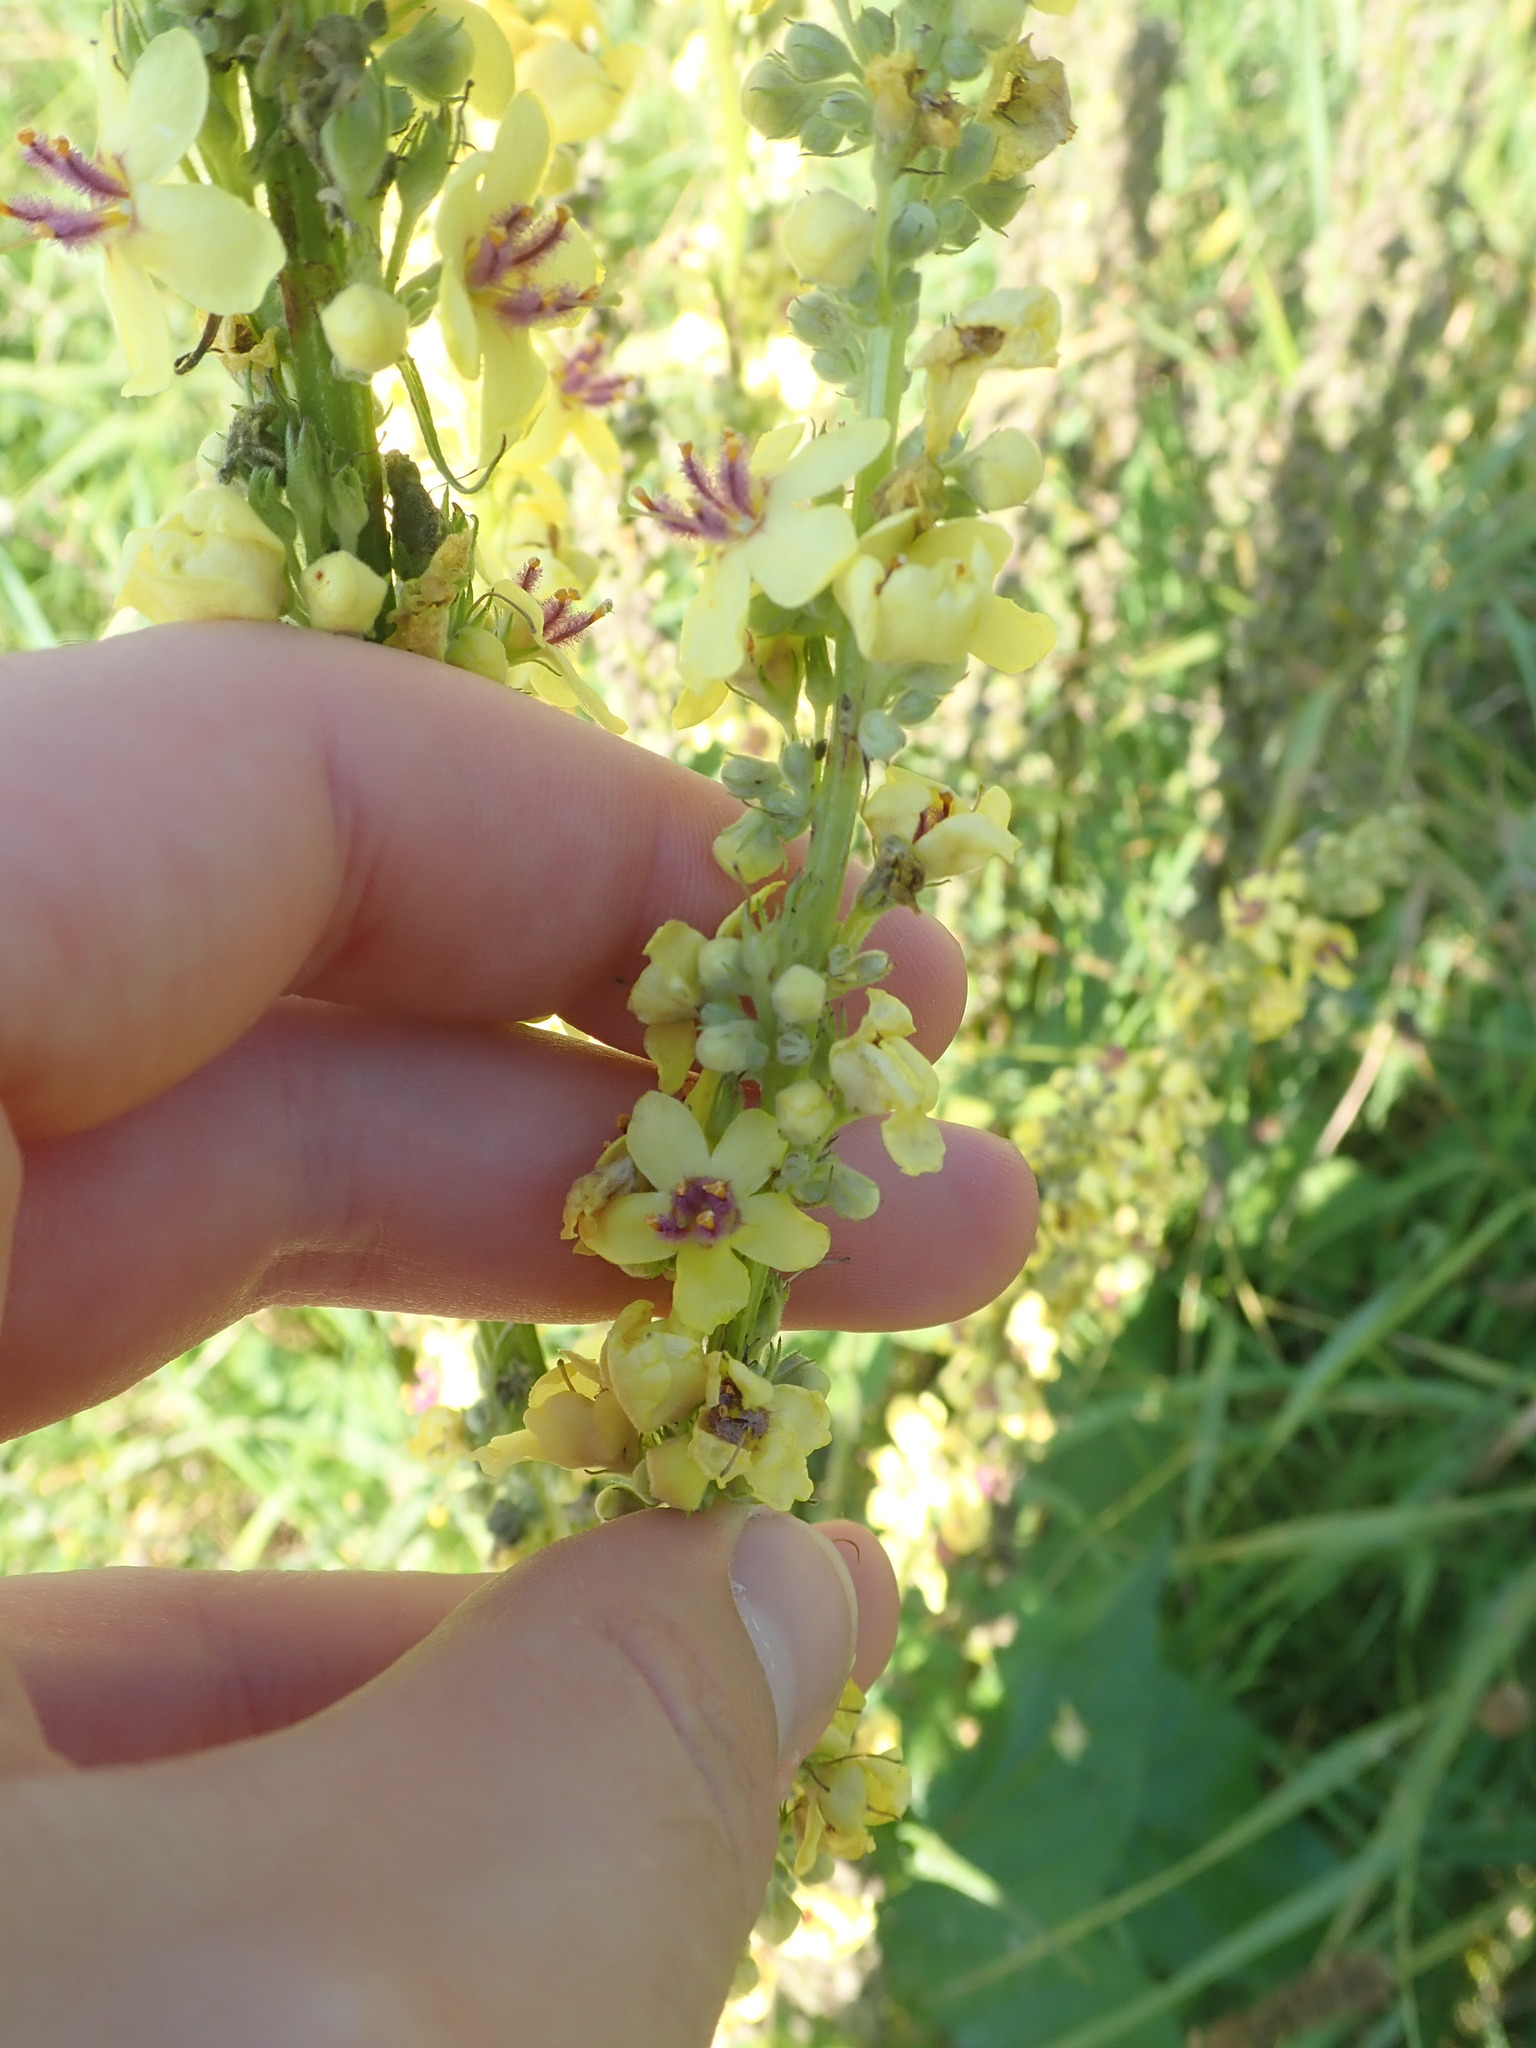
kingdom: Plantae
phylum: Tracheophyta
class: Magnoliopsida
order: Lamiales
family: Scrophulariaceae
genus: Verbascum
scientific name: Verbascum nigrum
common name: Dark mullein
